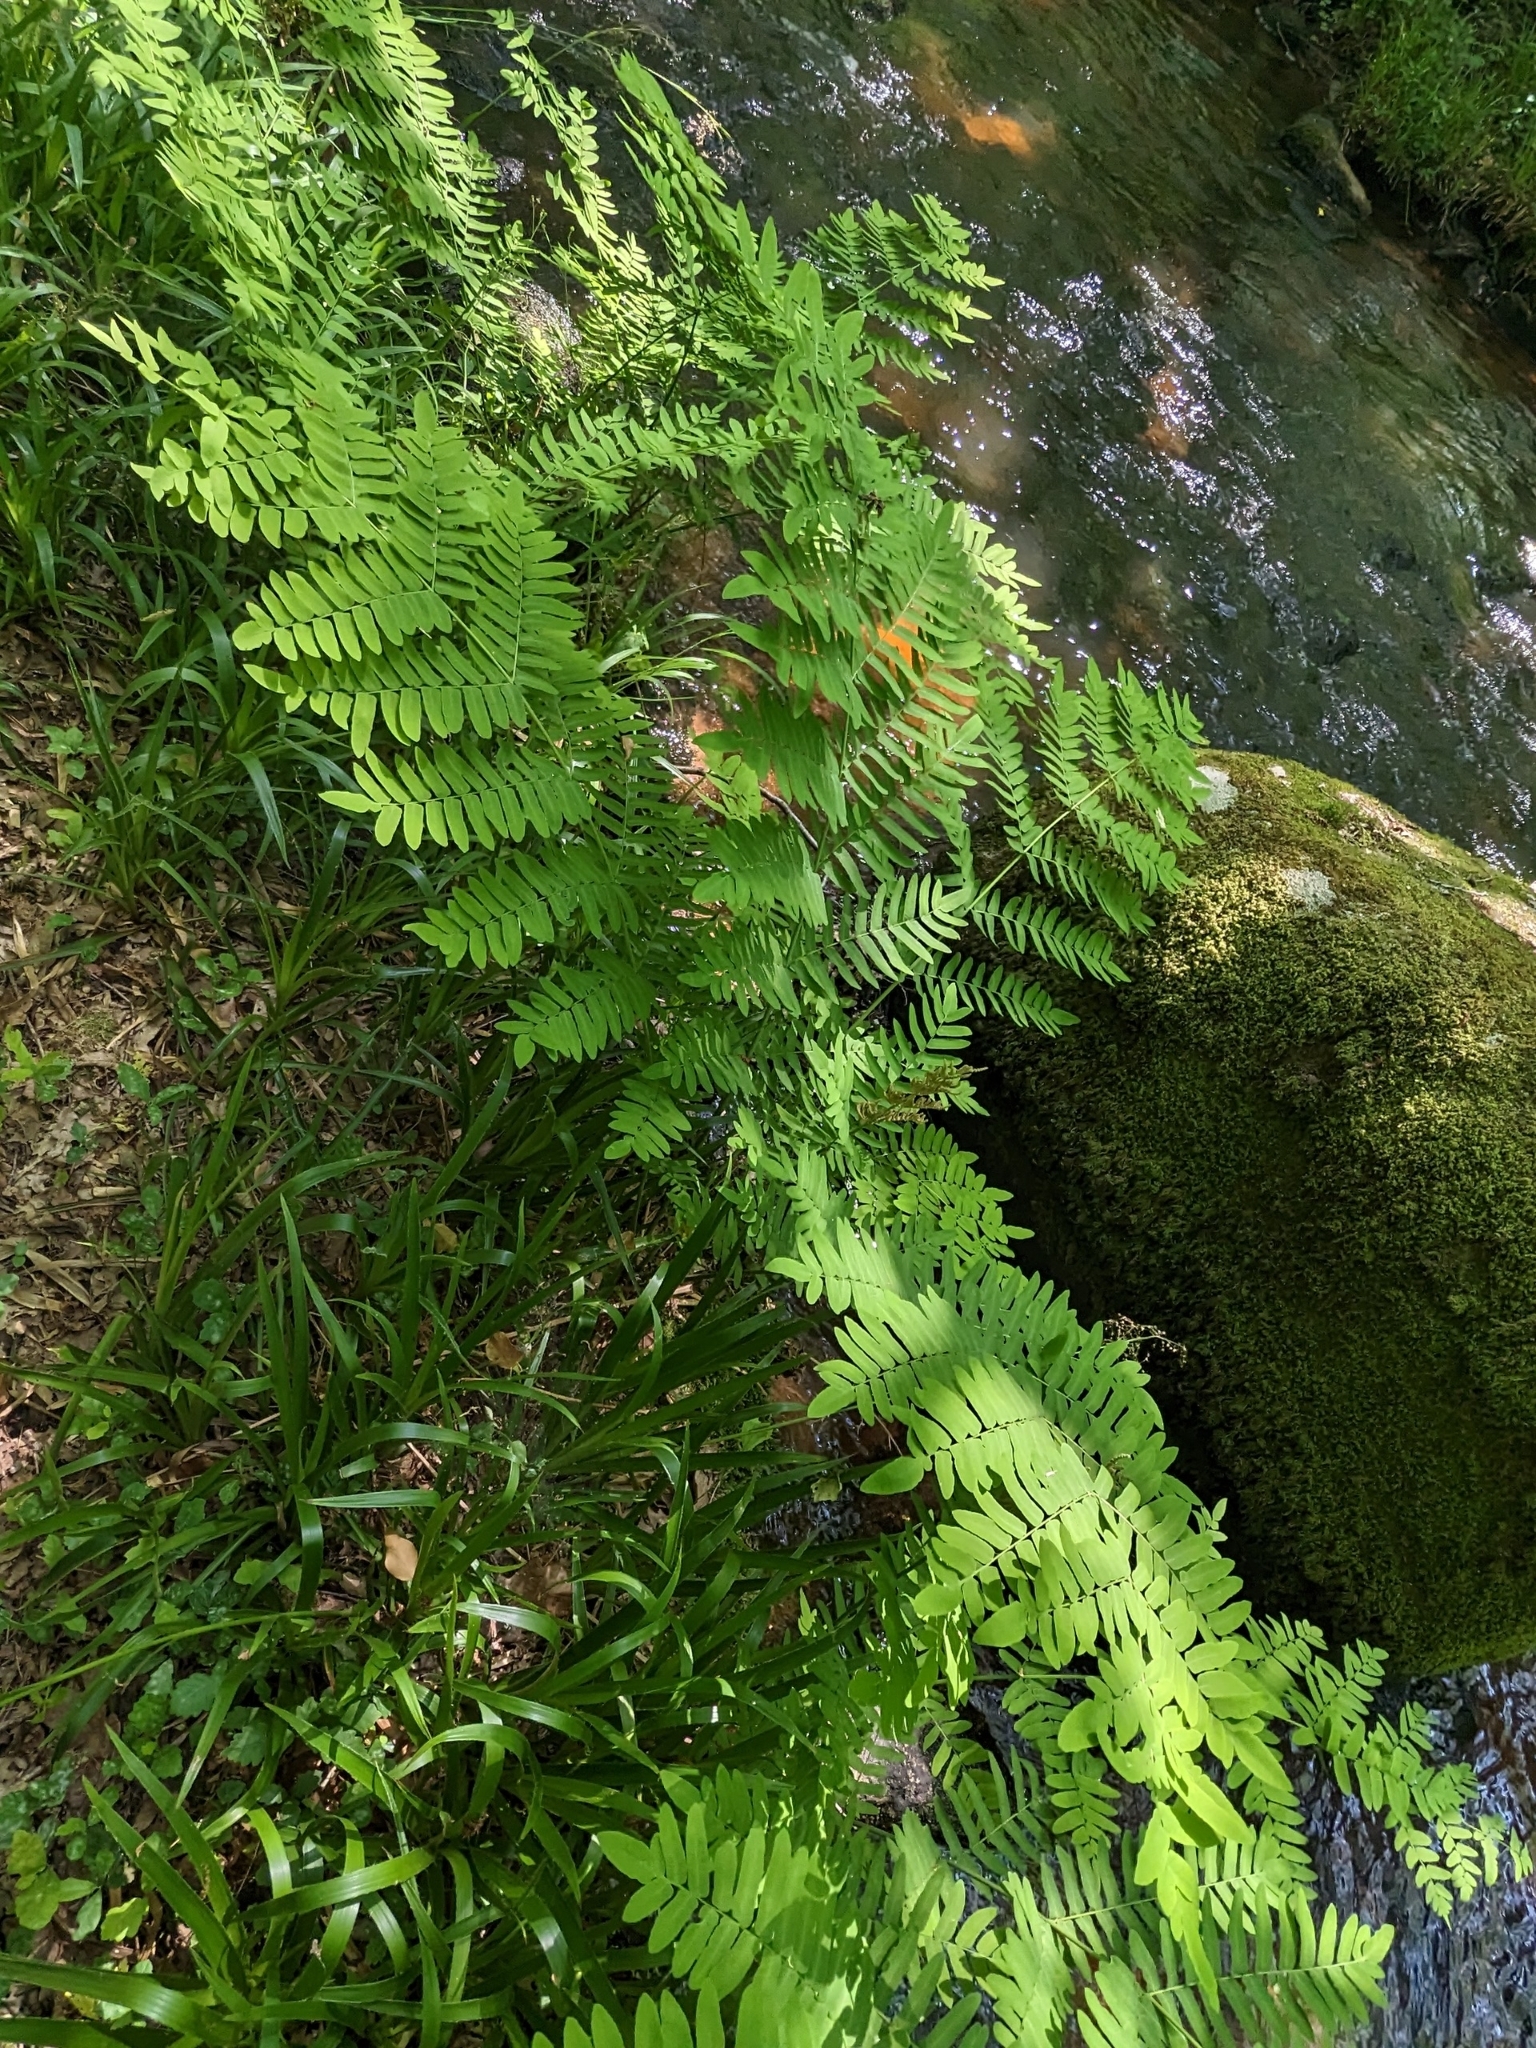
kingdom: Plantae
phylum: Tracheophyta
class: Polypodiopsida
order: Osmundales
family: Osmundaceae
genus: Osmunda
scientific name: Osmunda regalis
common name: Royal fern
